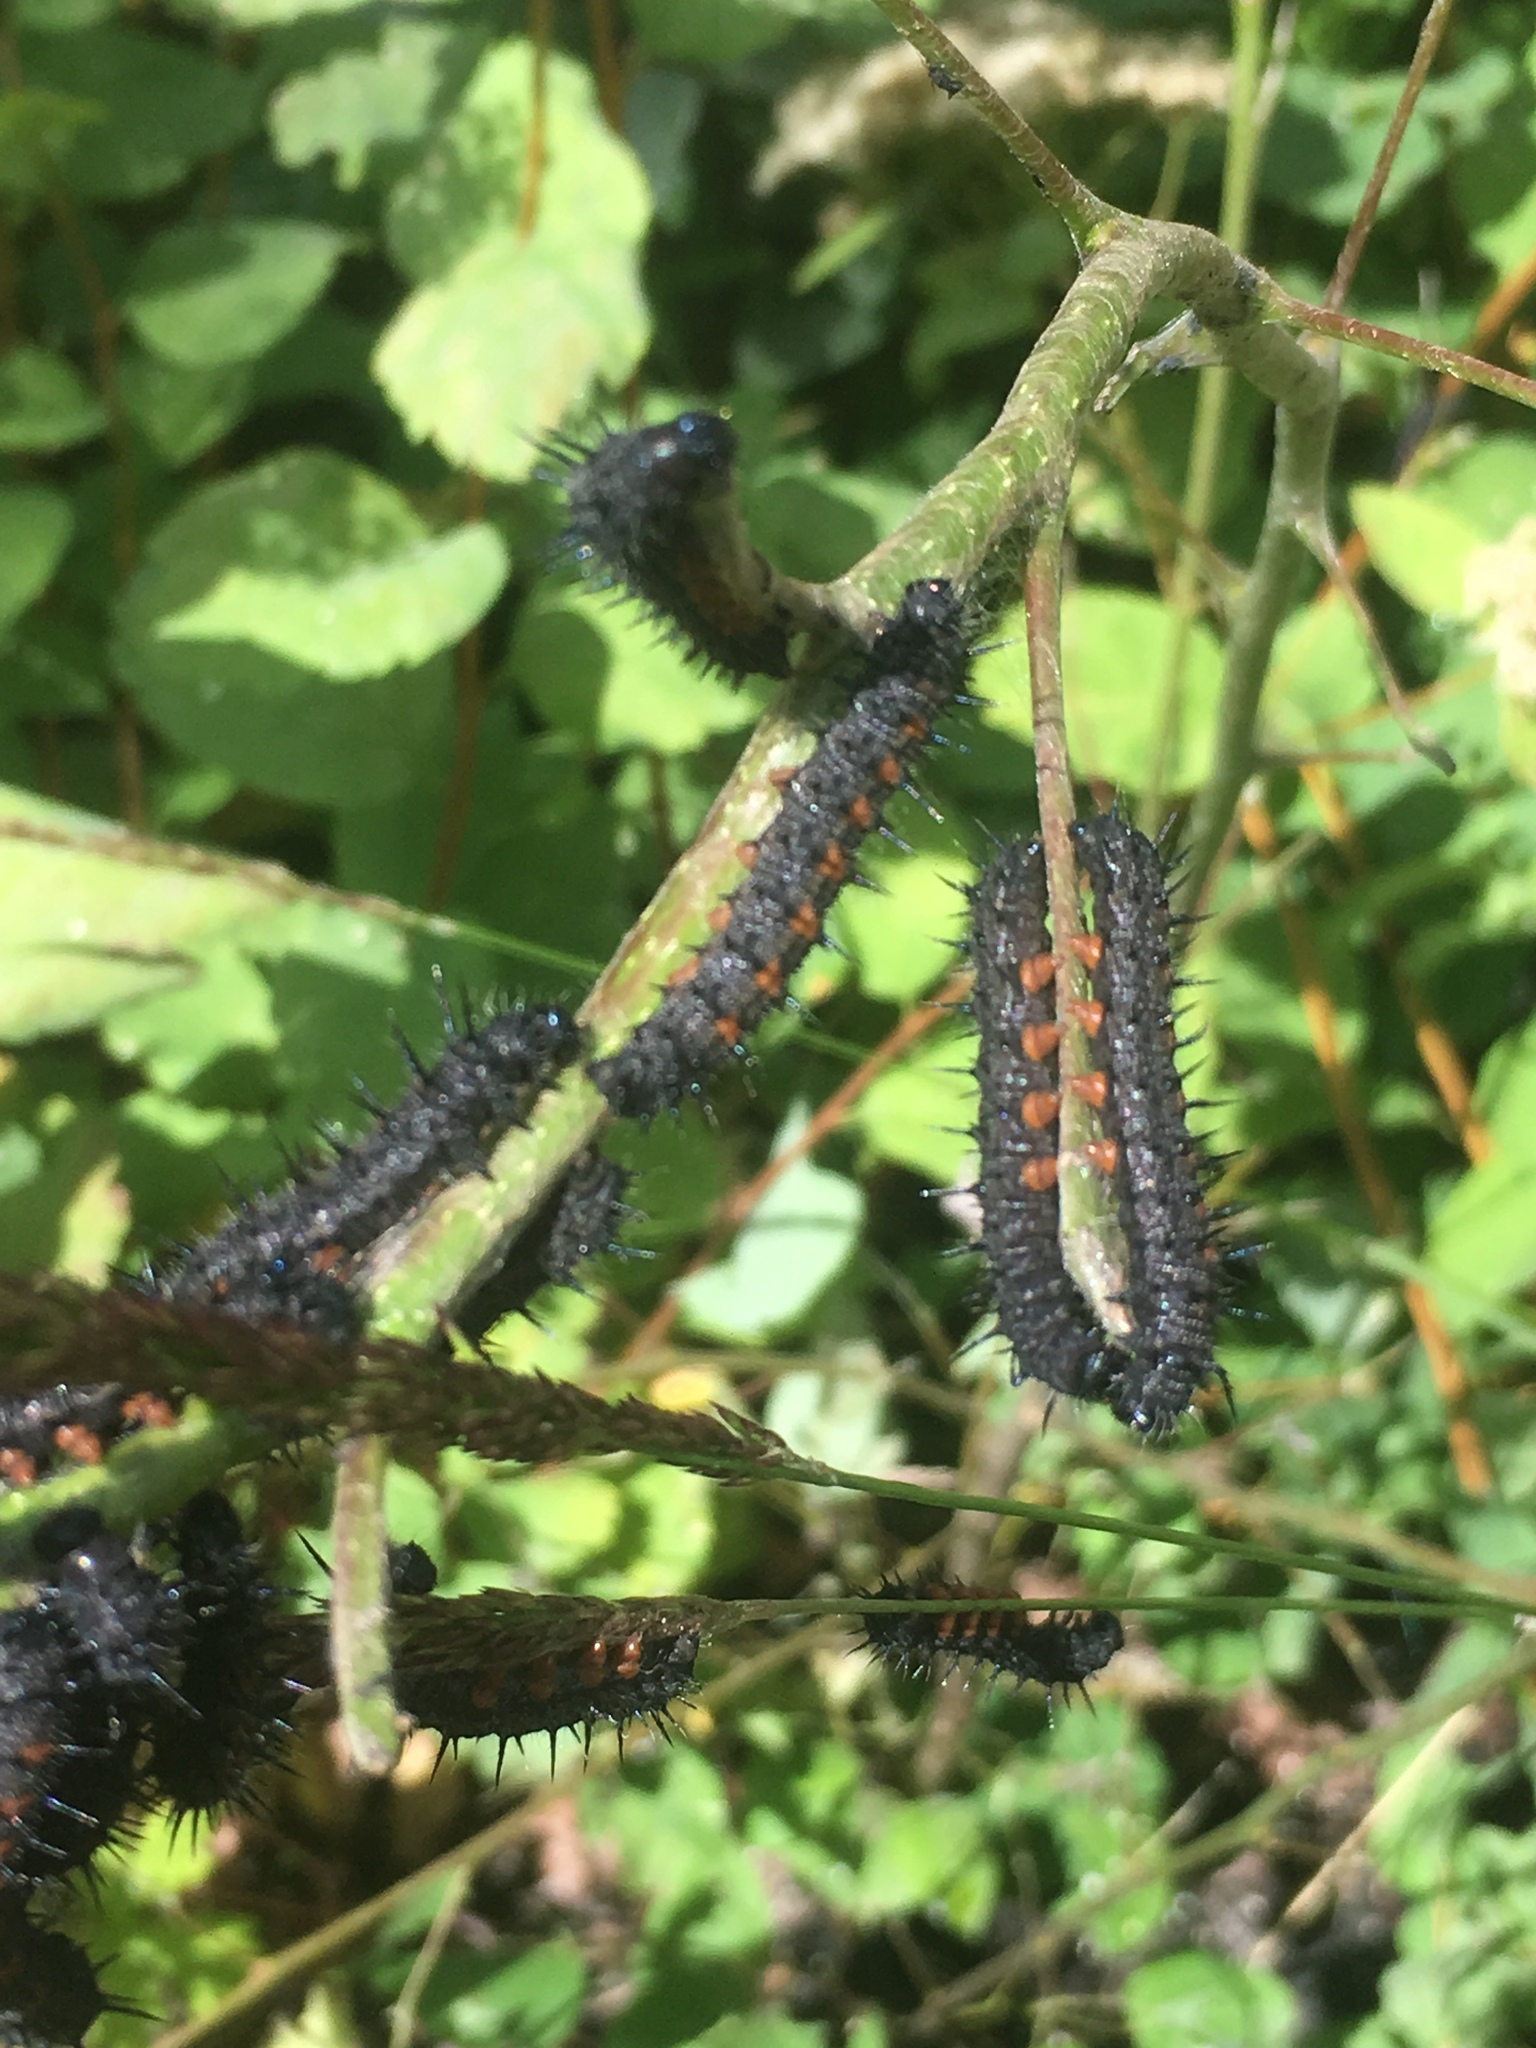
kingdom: Animalia
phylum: Arthropoda
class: Insecta
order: Lepidoptera
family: Nymphalidae
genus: Nymphalis
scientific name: Nymphalis antiopa
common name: Camberwell beauty
